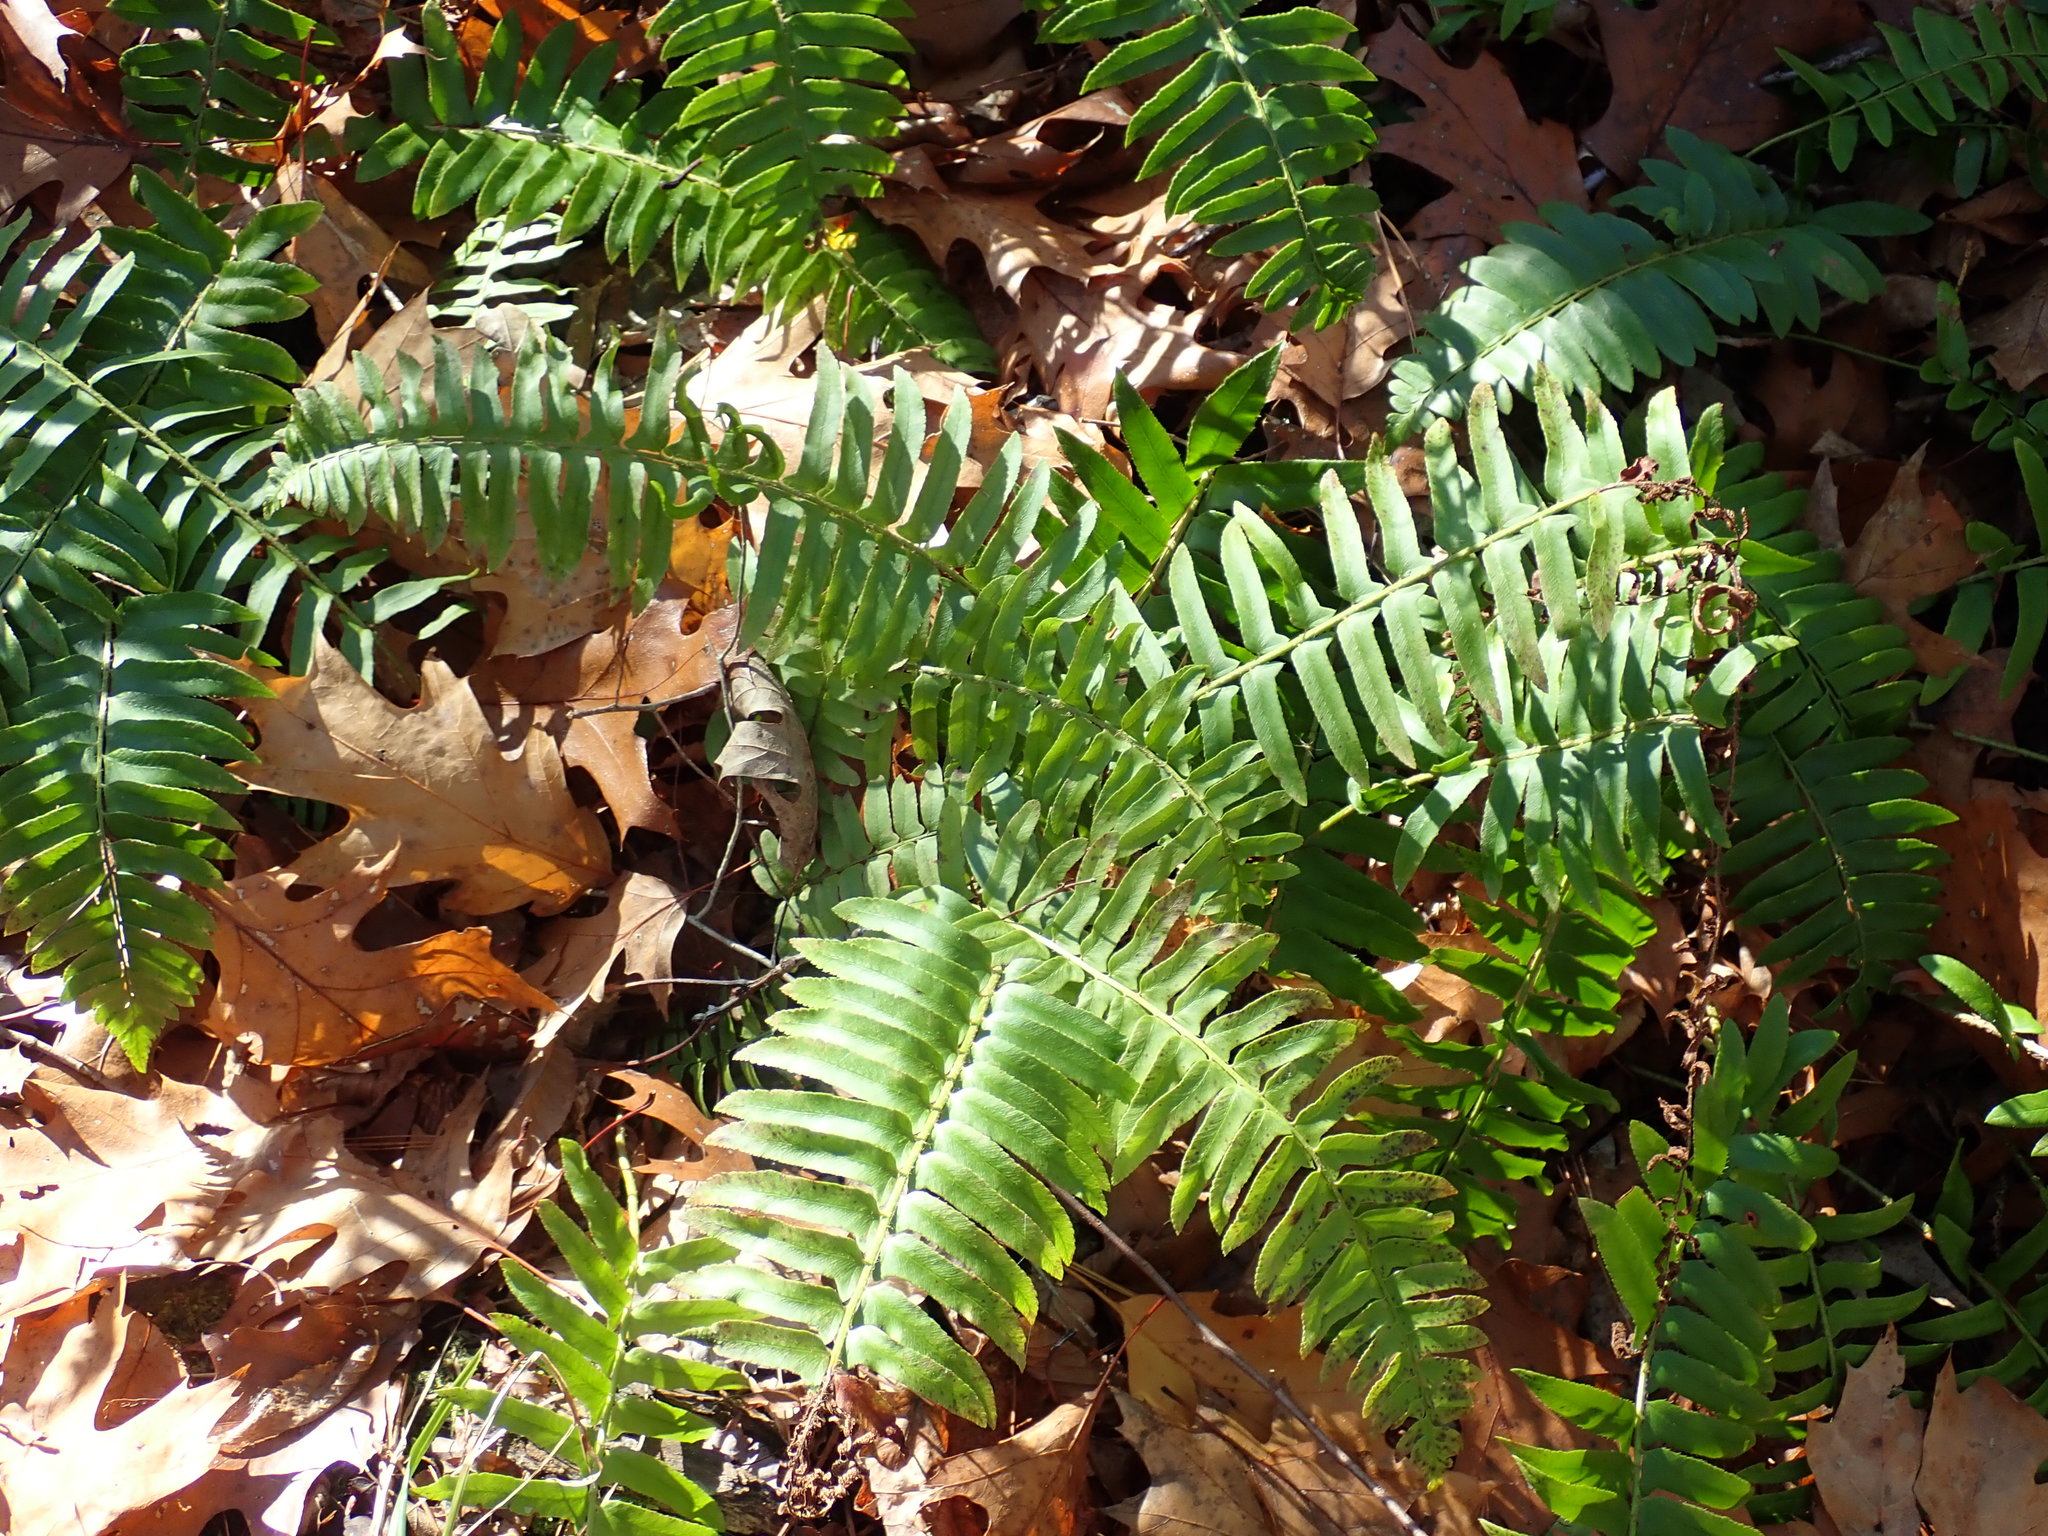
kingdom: Plantae
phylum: Tracheophyta
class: Polypodiopsida
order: Polypodiales
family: Dryopteridaceae
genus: Polystichum
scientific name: Polystichum acrostichoides
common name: Christmas fern
